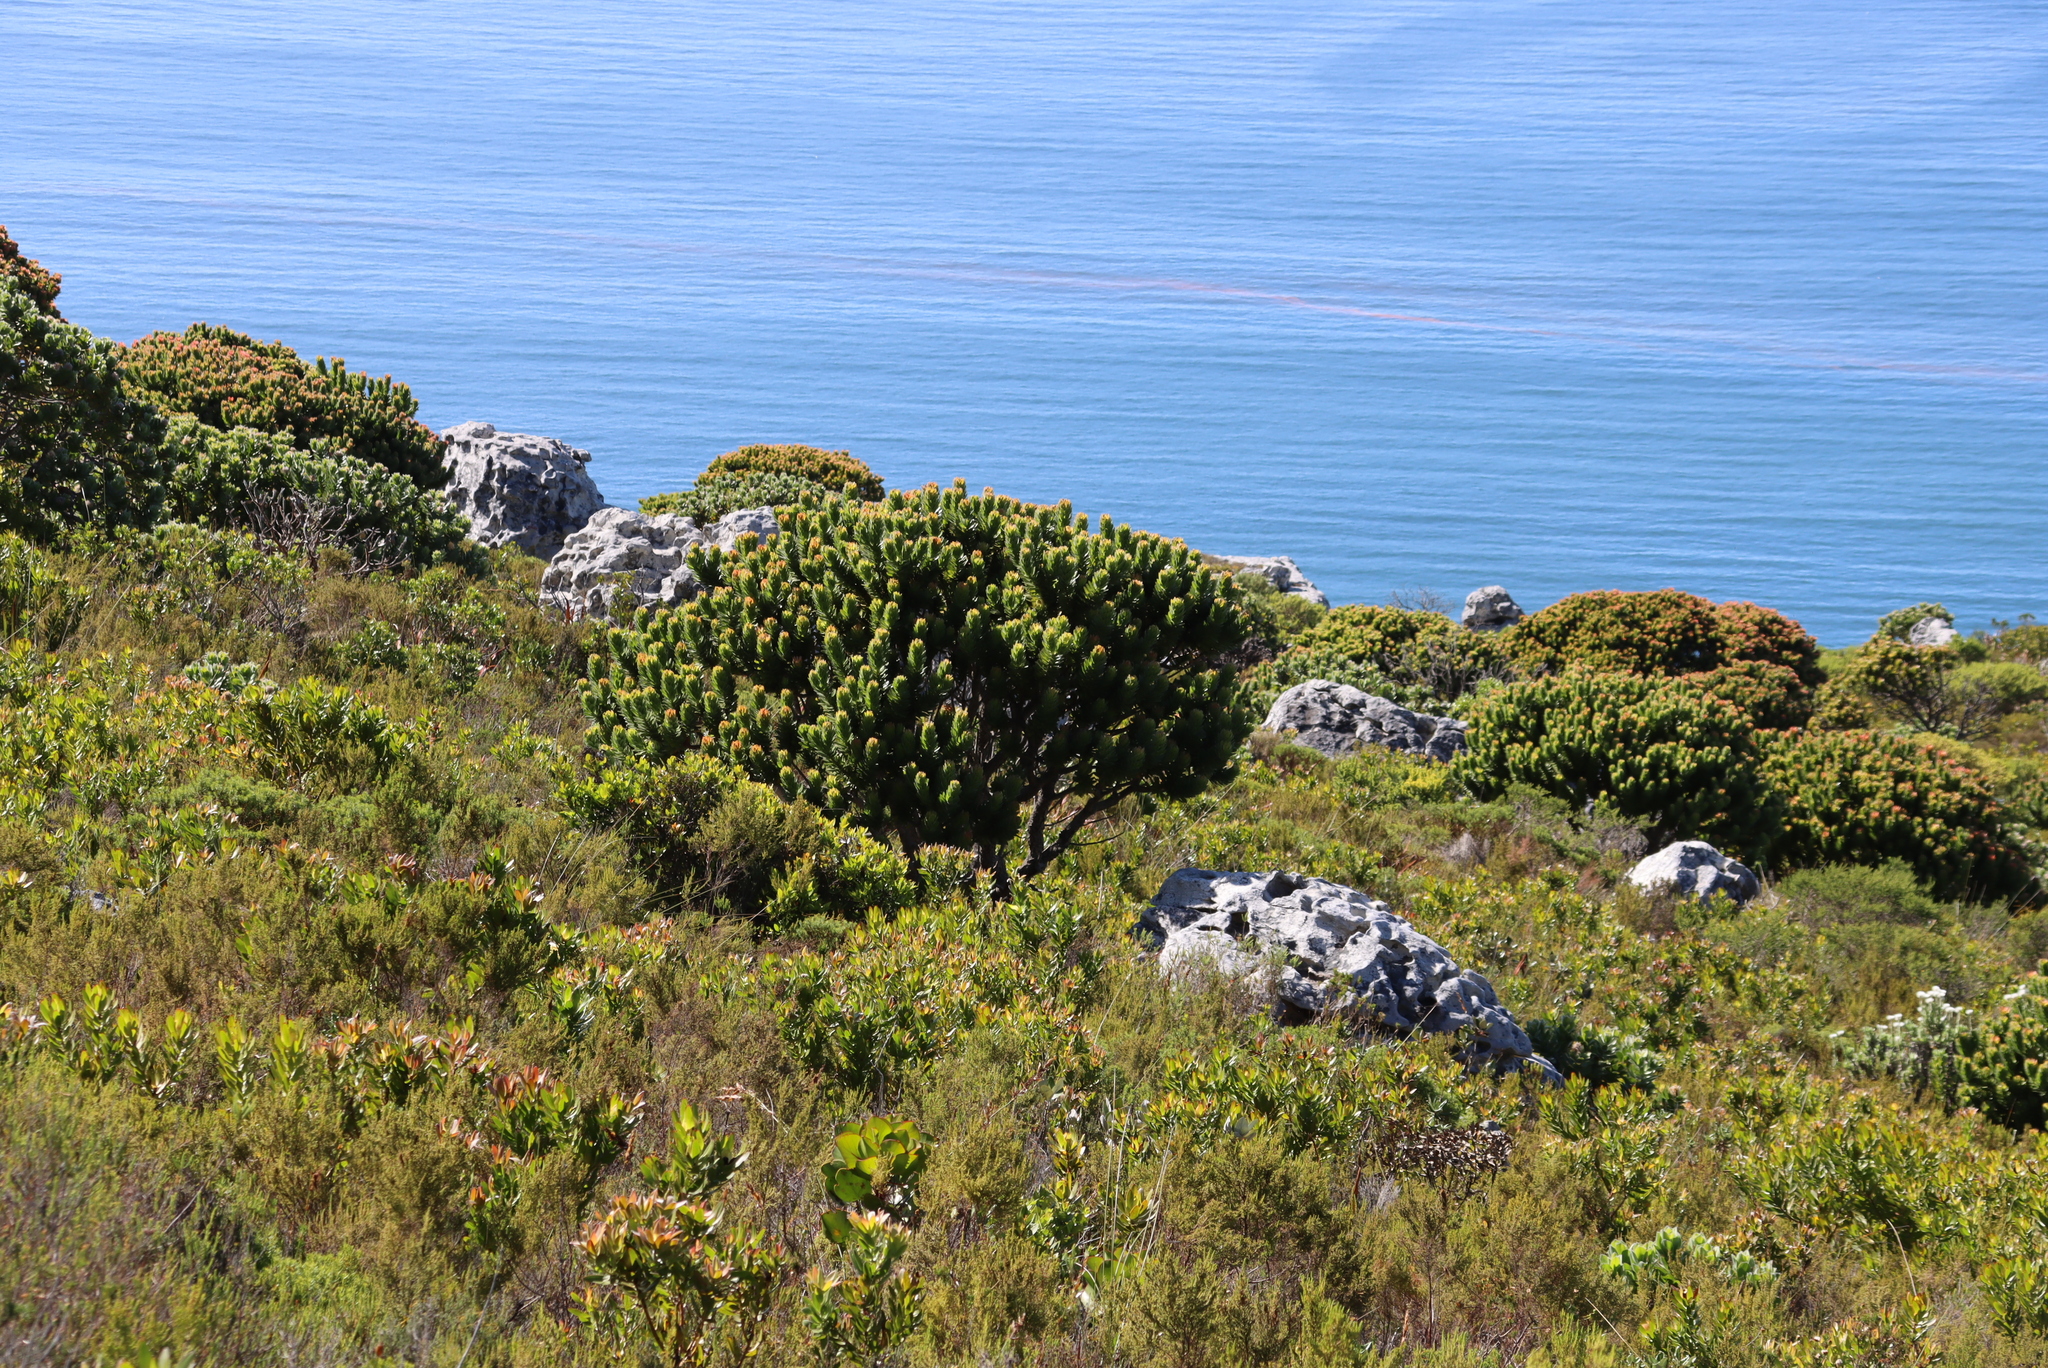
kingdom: Plantae
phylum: Tracheophyta
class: Magnoliopsida
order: Proteales
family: Proteaceae
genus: Mimetes
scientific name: Mimetes fimbriifolius
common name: Fringed bottlebrush
